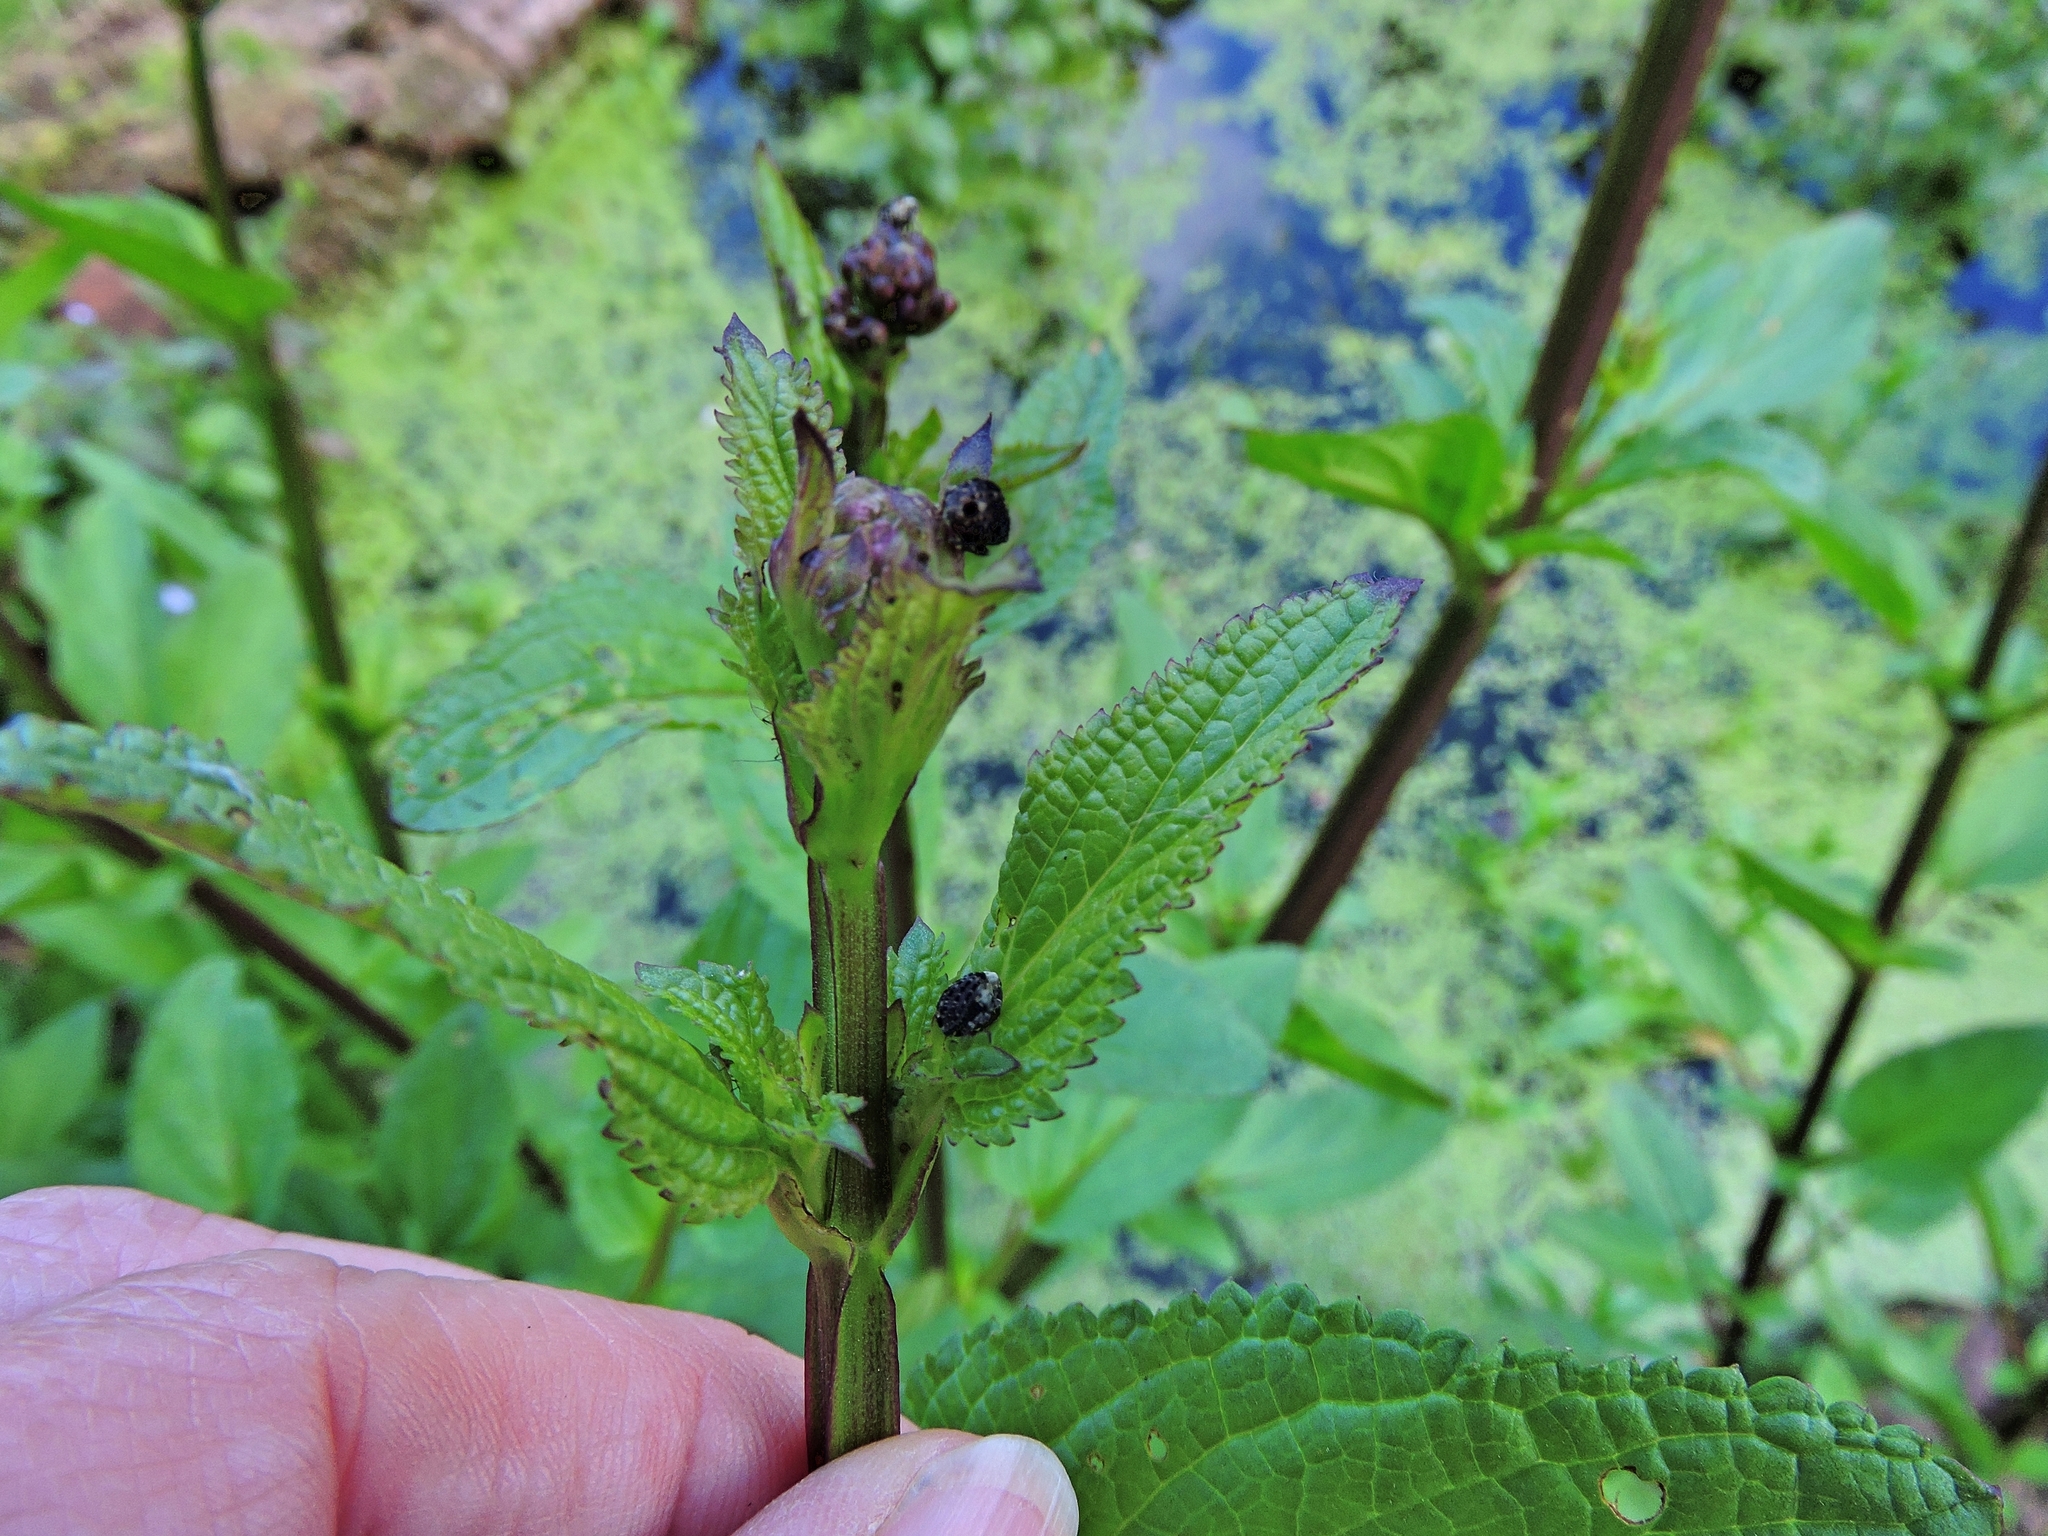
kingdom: Animalia
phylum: Arthropoda
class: Insecta
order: Coleoptera
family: Curculionidae
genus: Cionus
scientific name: Cionus scrophulariae
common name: Common figwort weevil
